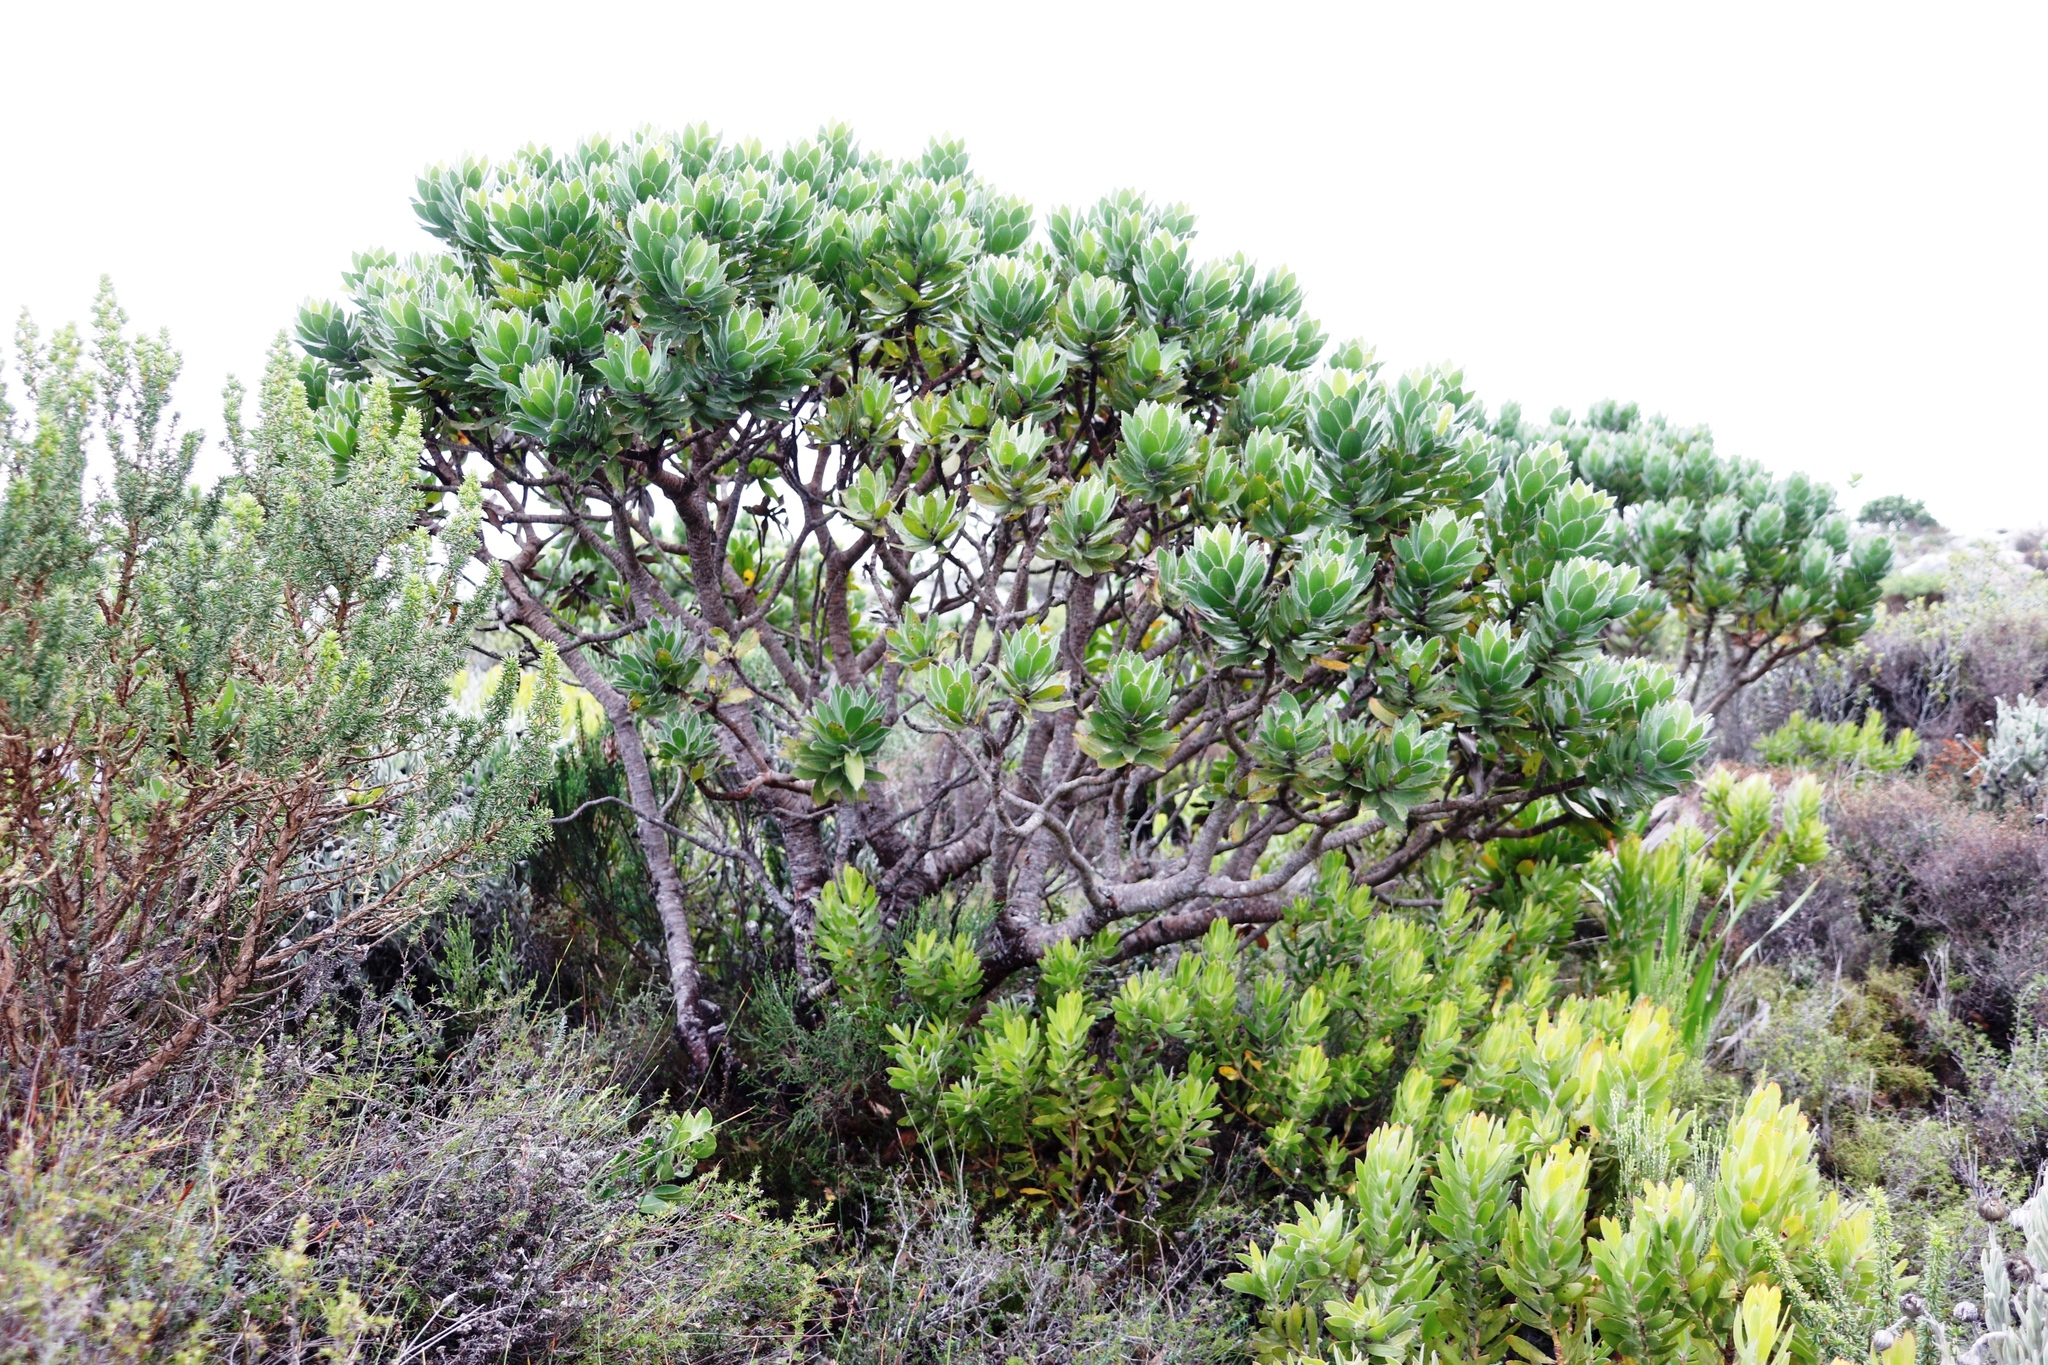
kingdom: Plantae
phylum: Tracheophyta
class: Magnoliopsida
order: Proteales
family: Proteaceae
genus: Leucospermum
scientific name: Leucospermum conocarpodendron
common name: Tree pincushion
